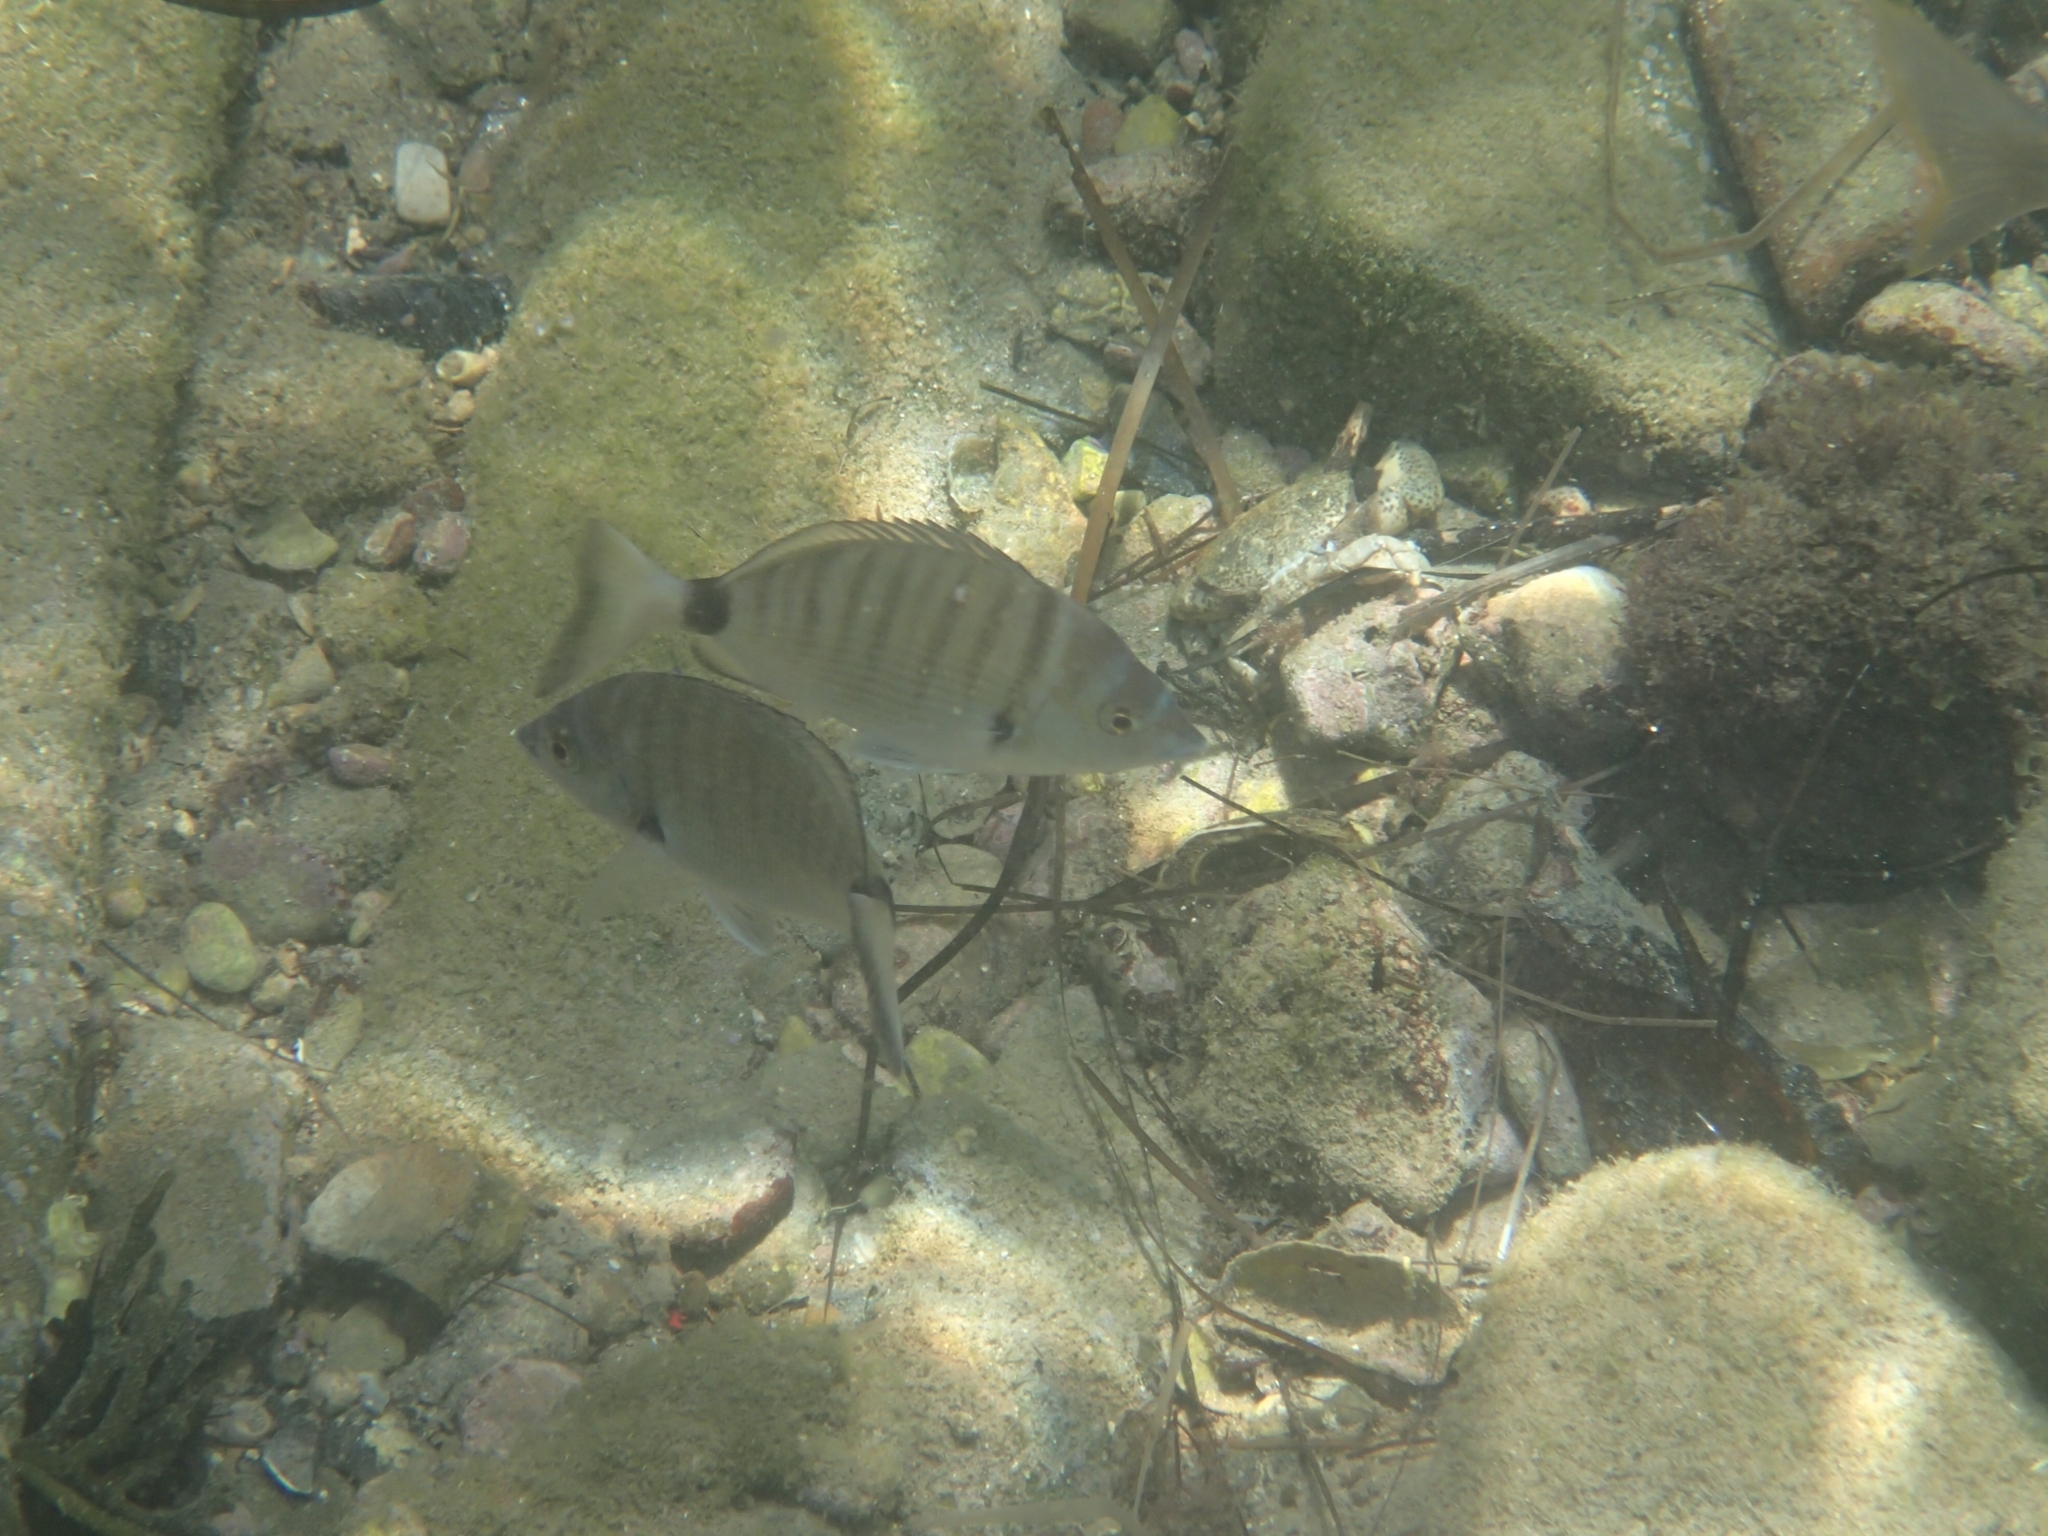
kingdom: Animalia
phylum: Chordata
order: Perciformes
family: Sparidae
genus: Diplodus
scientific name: Diplodus puntazzo
